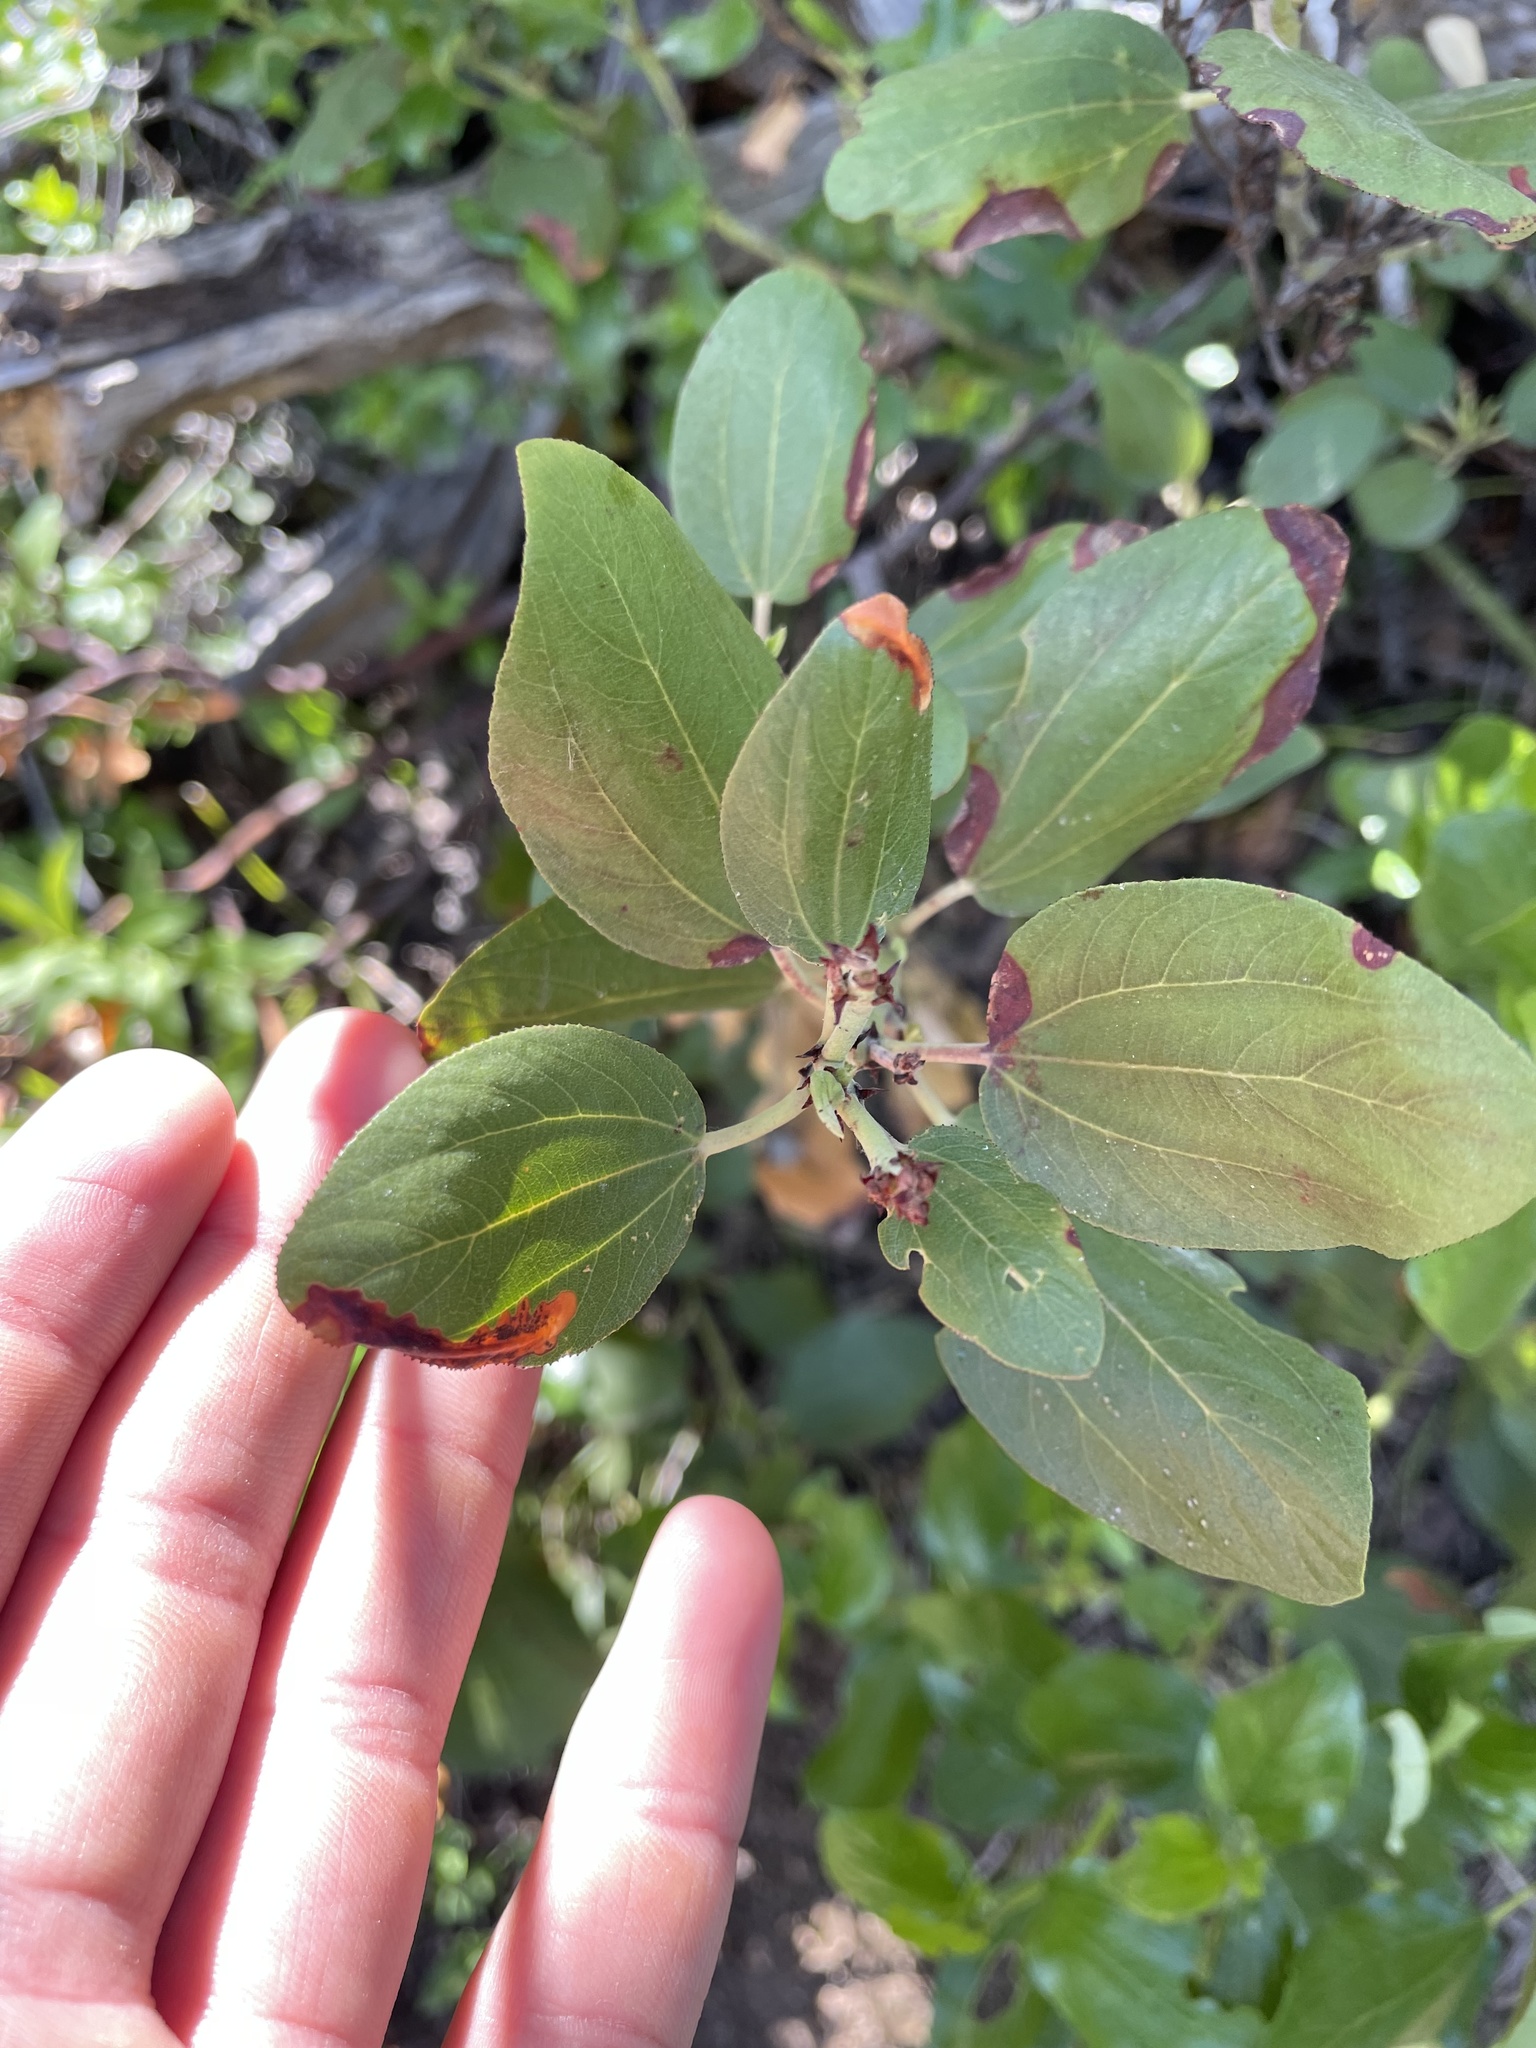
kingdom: Plantae
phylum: Tracheophyta
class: Magnoliopsida
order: Rosales
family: Rhamnaceae
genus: Ceanothus
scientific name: Ceanothus velutinus
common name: Snowbrush
